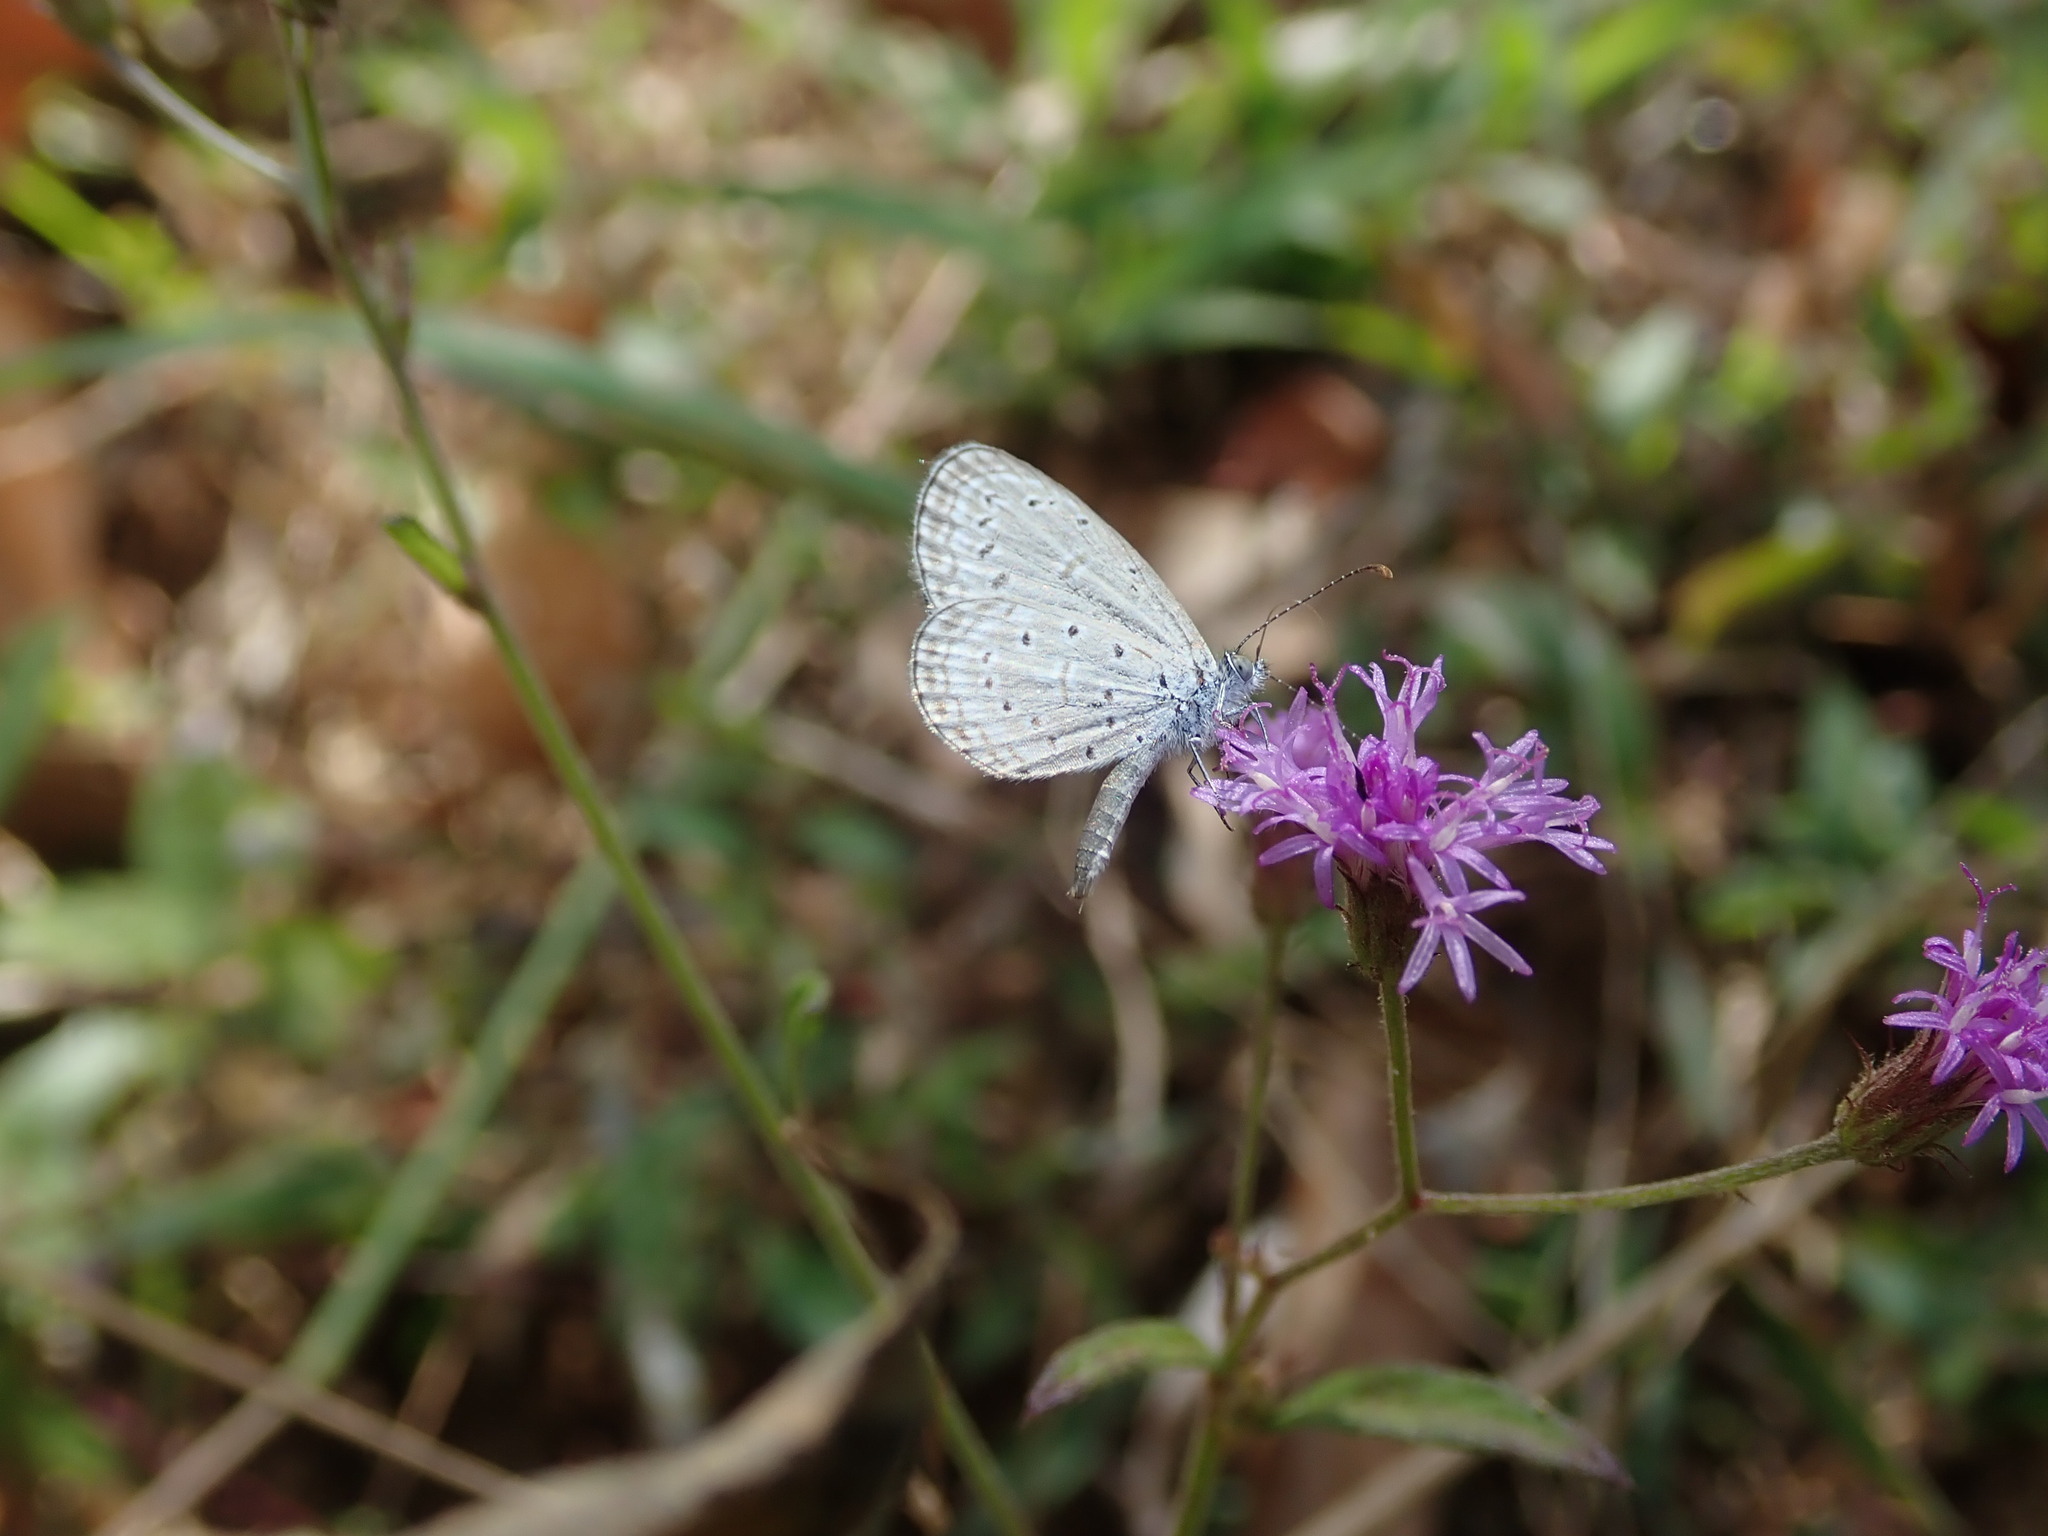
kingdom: Animalia
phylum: Arthropoda
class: Insecta
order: Lepidoptera
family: Lycaenidae
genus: Zizula
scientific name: Zizula hylax
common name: Gaika blue
